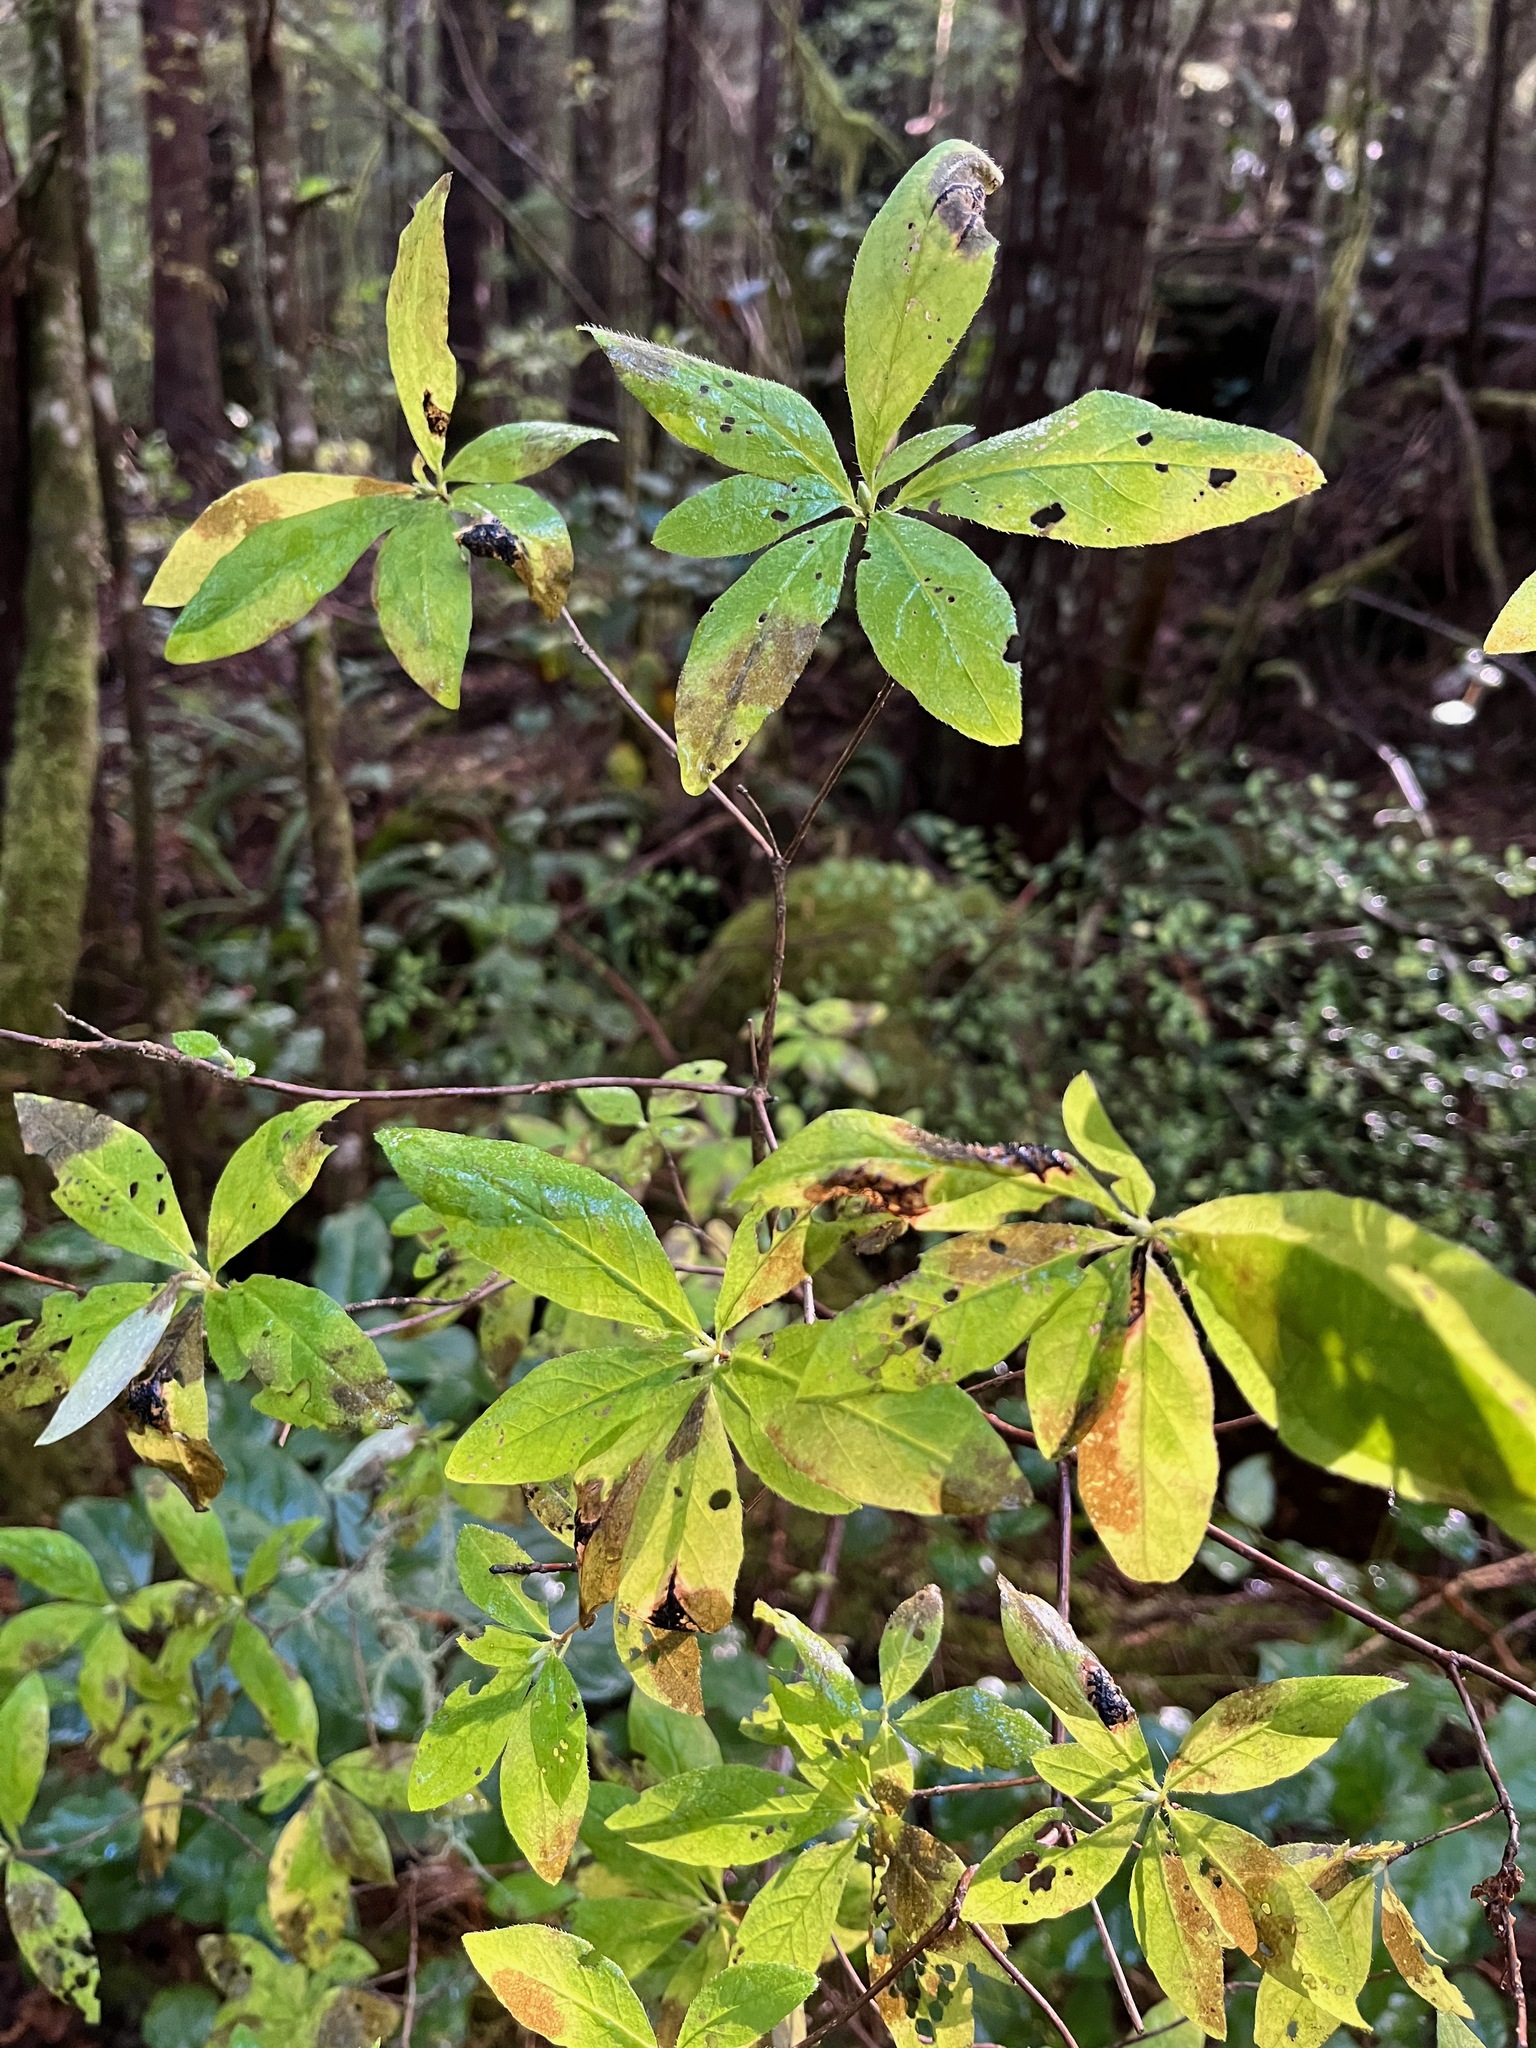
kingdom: Plantae
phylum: Tracheophyta
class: Magnoliopsida
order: Ericales
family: Ericaceae
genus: Rhododendron
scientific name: Rhododendron menziesii
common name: Pacific menziesia
